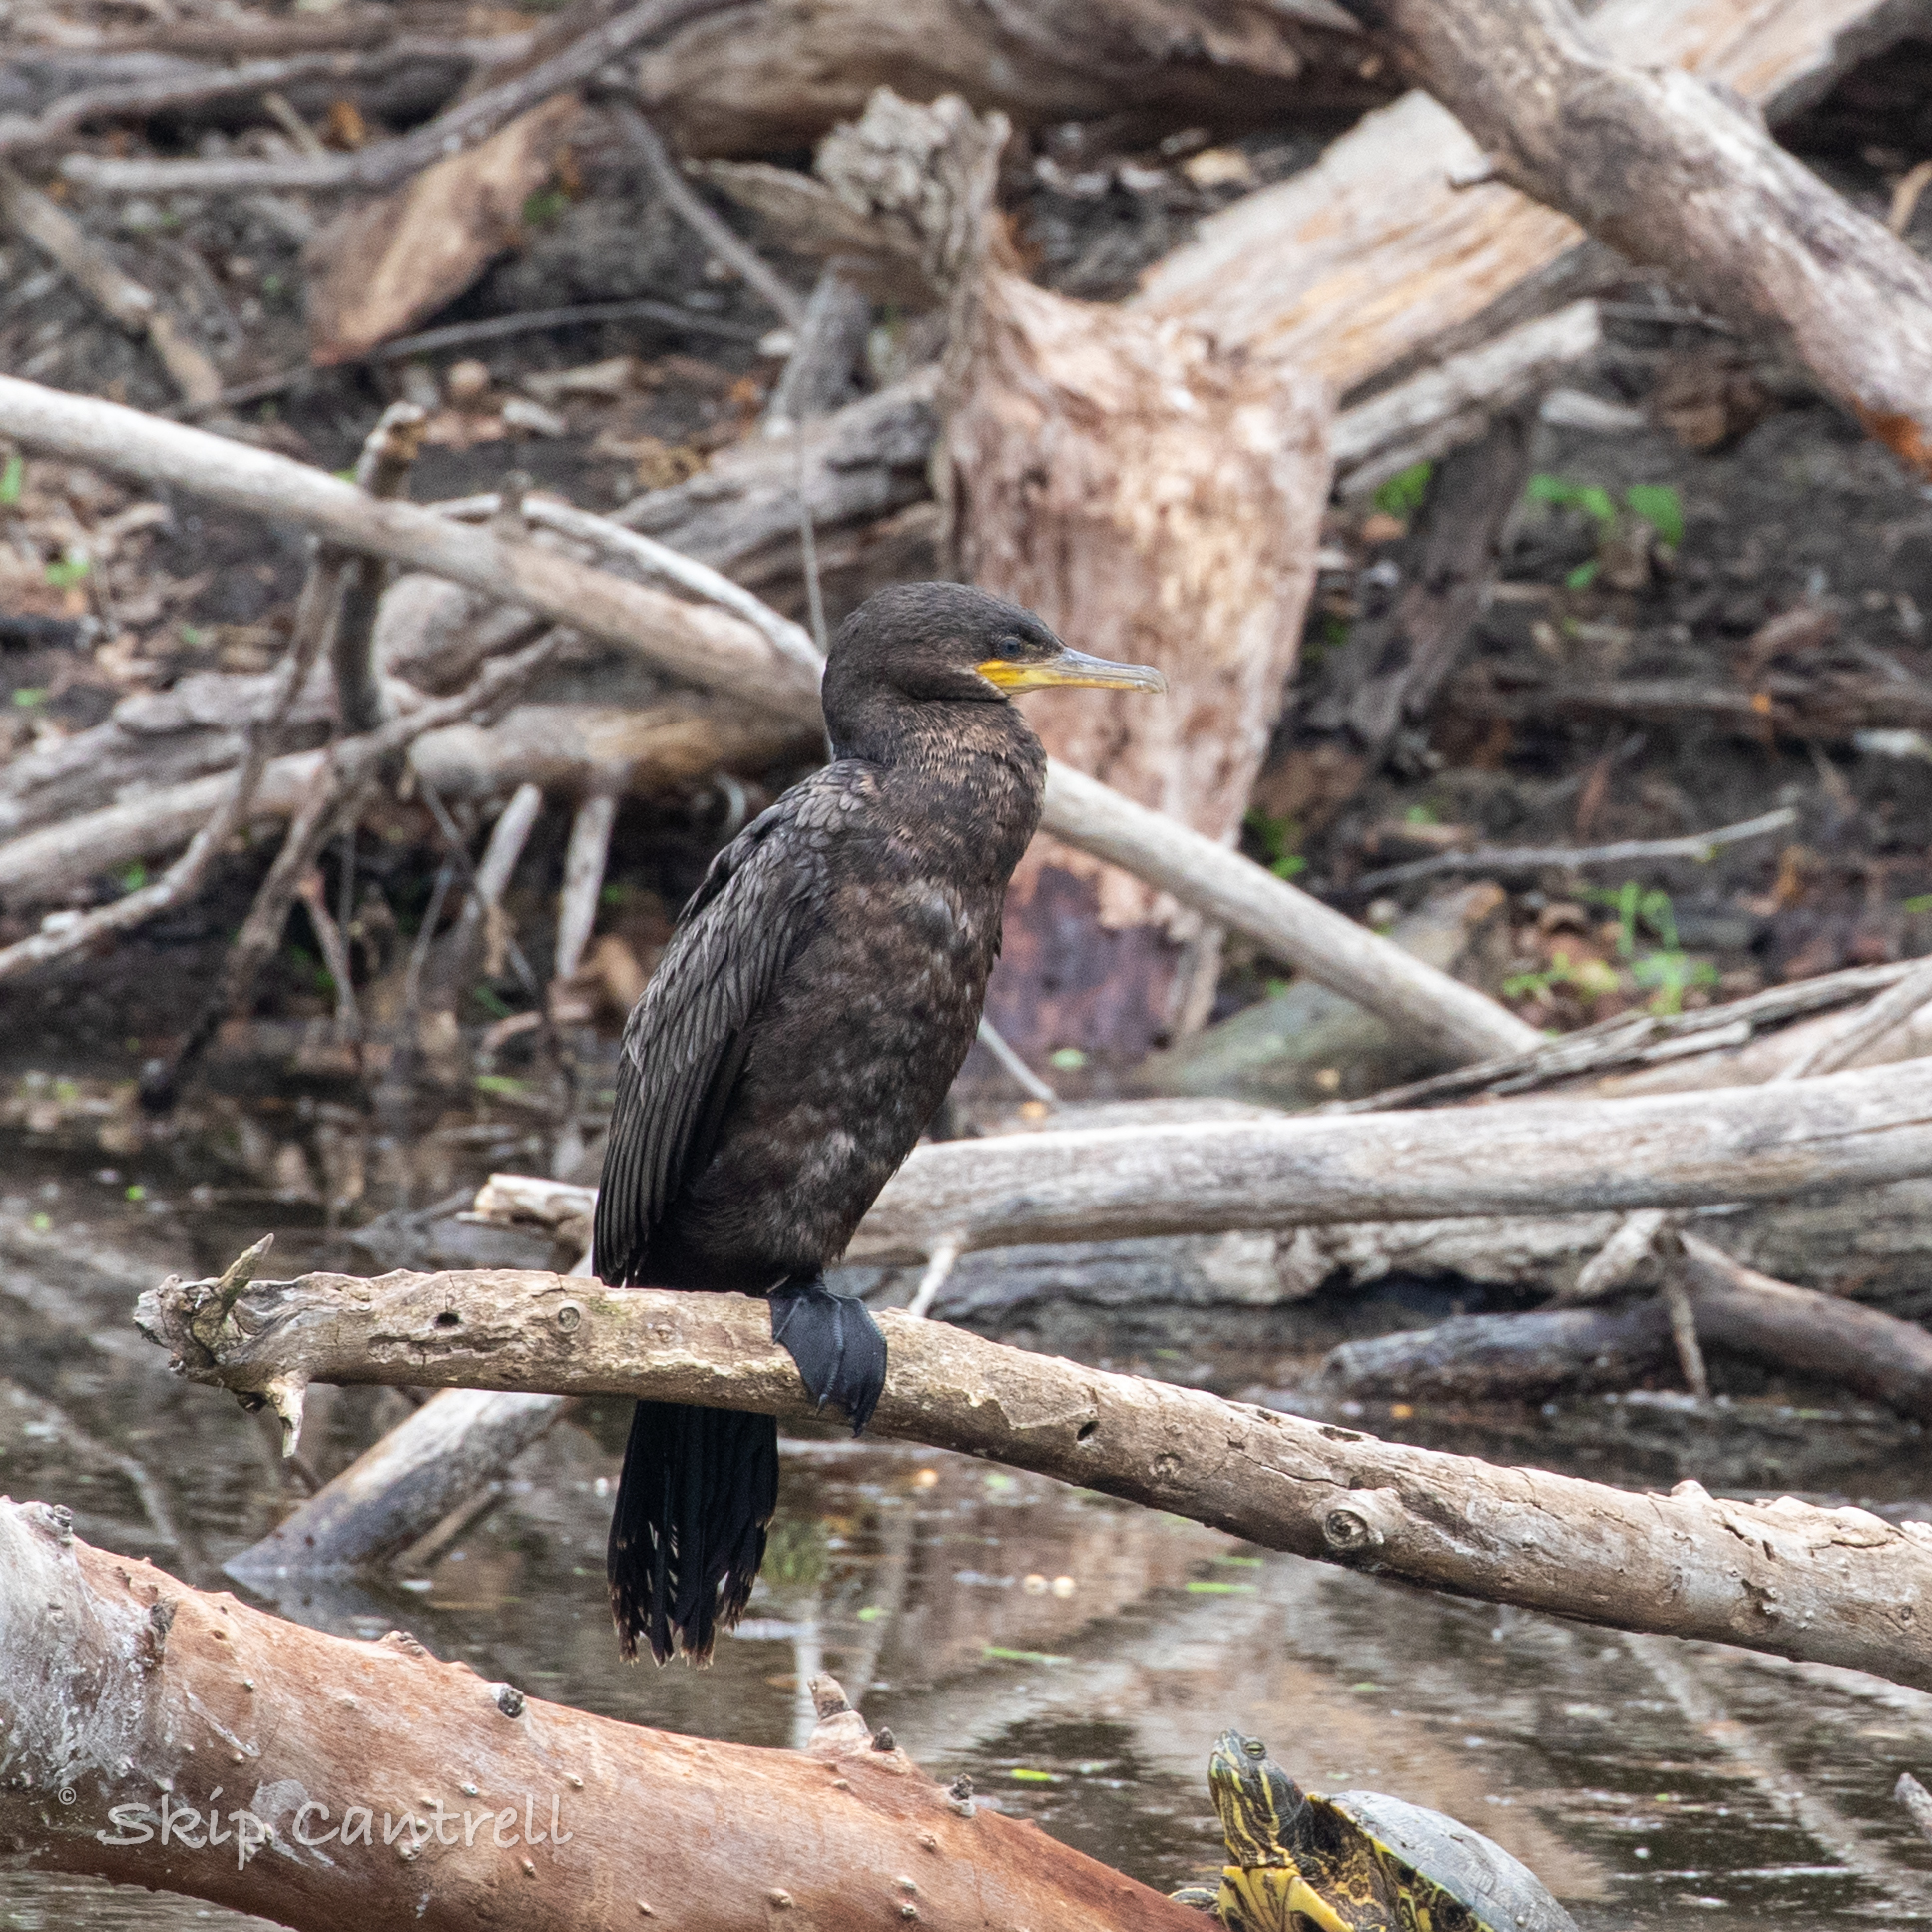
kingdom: Animalia
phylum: Chordata
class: Aves
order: Suliformes
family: Phalacrocoracidae
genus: Phalacrocorax
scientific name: Phalacrocorax brasilianus
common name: Neotropic cormorant
